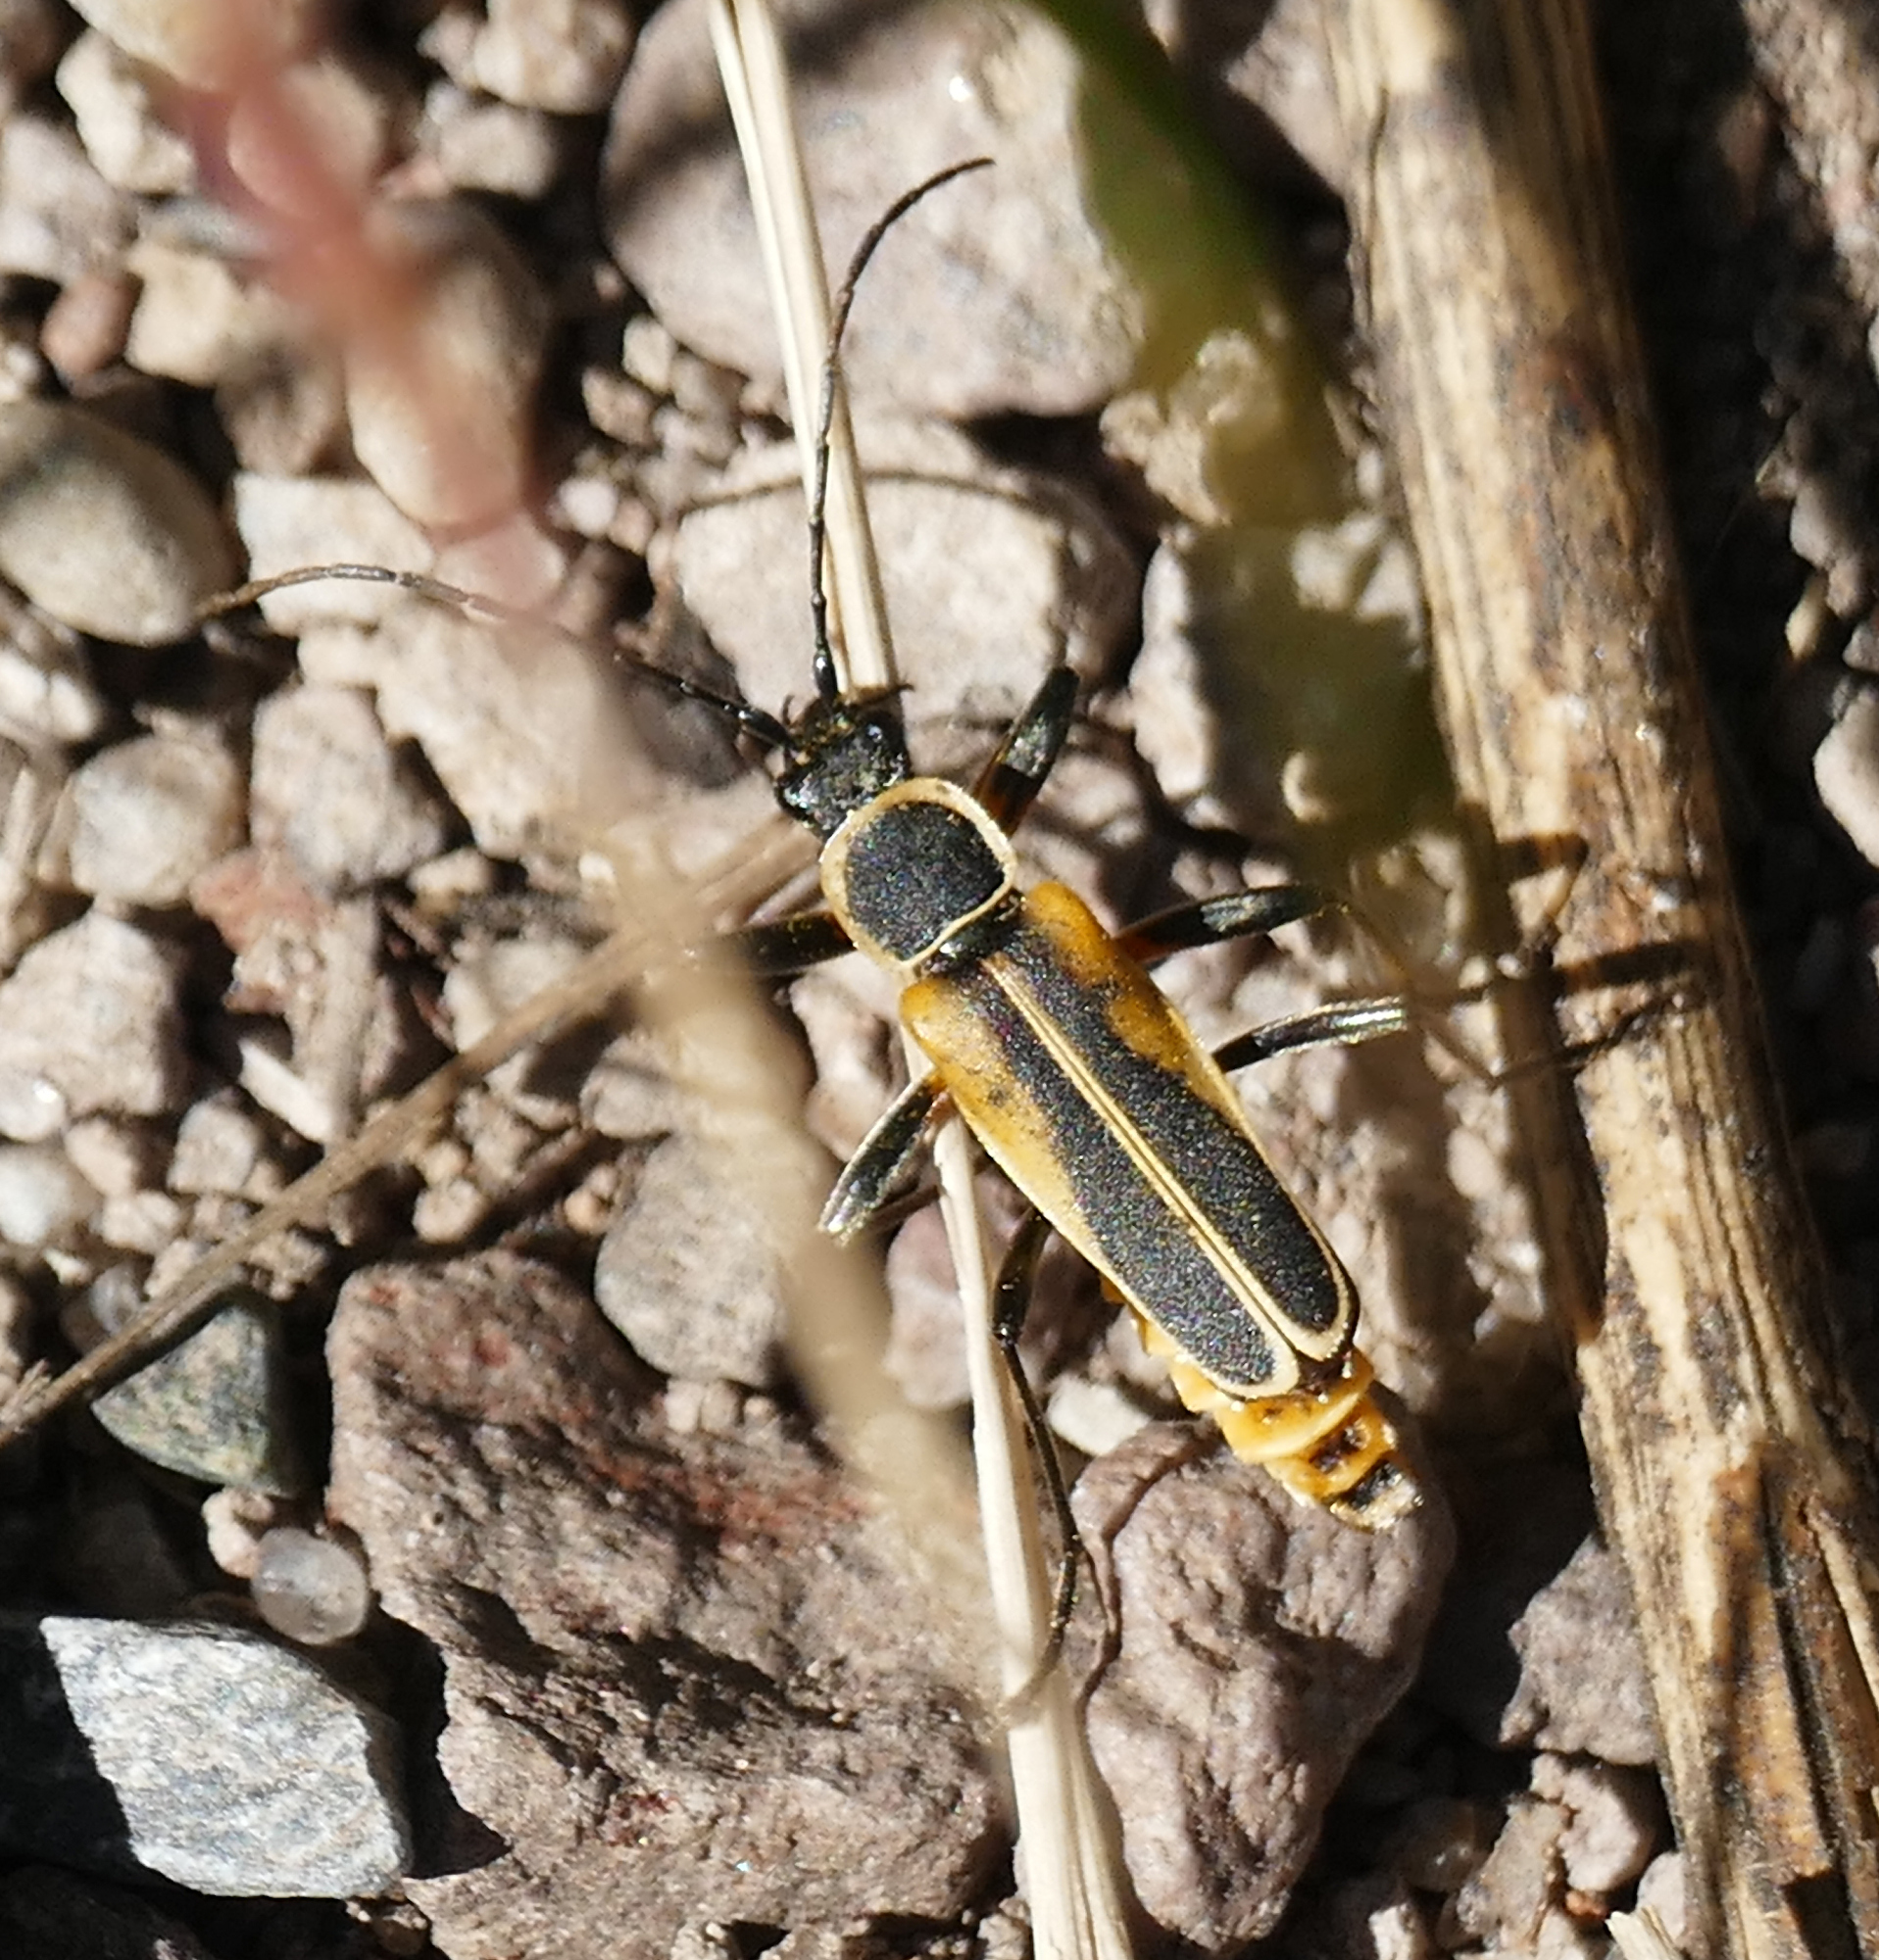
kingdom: Animalia
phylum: Arthropoda
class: Insecta
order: Coleoptera
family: Cantharidae
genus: Chauliognathus
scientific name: Chauliognathus opacus
